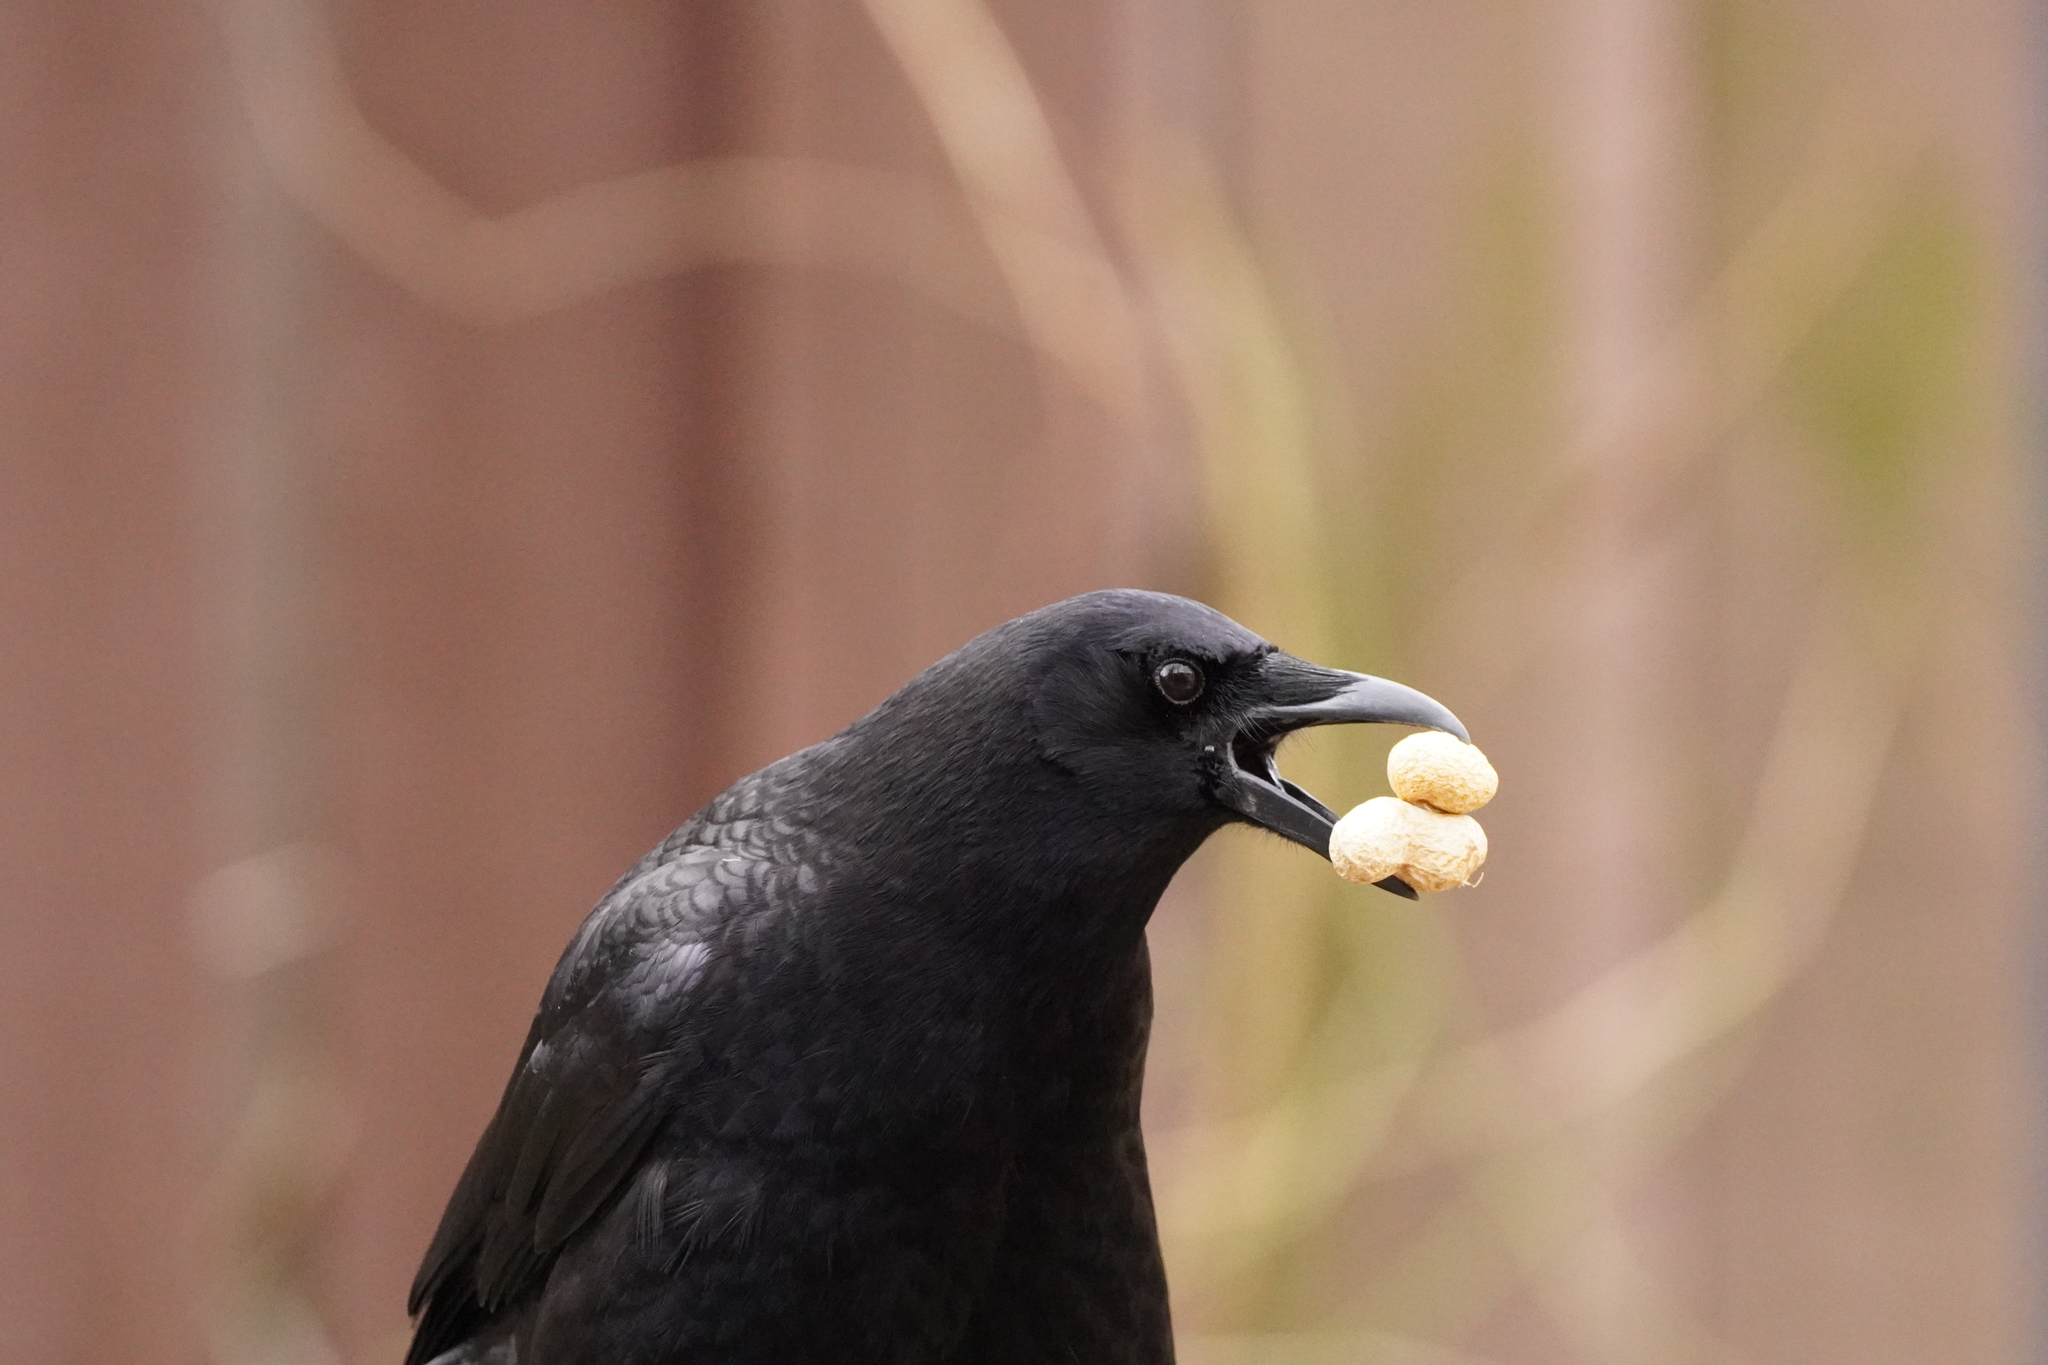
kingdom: Animalia
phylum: Chordata
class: Aves
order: Passeriformes
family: Corvidae
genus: Corvus
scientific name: Corvus brachyrhynchos
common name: American crow
